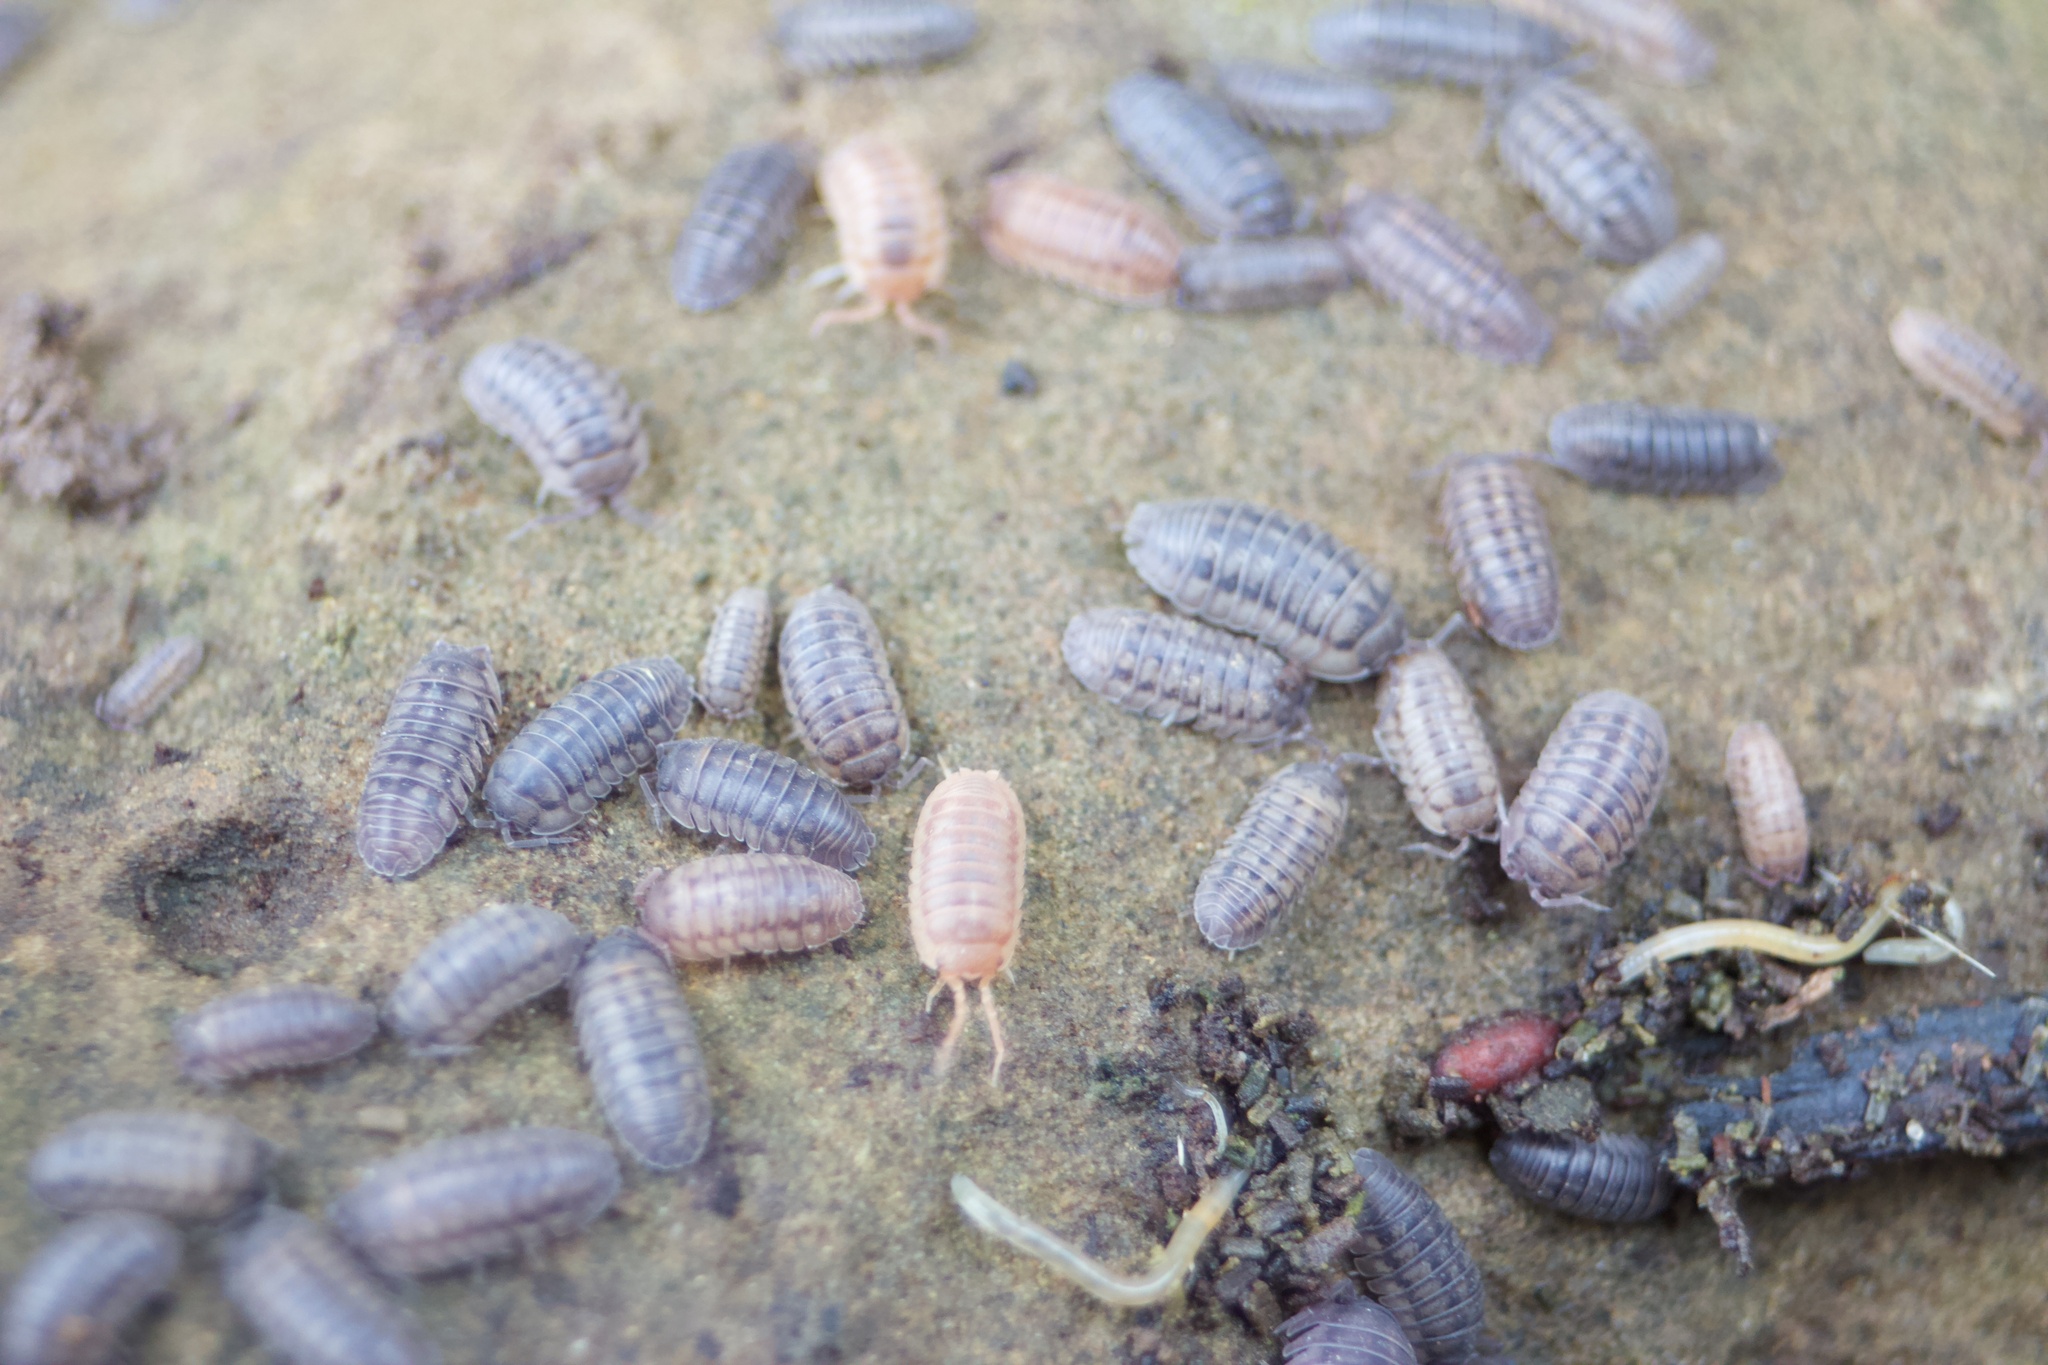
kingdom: Animalia
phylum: Arthropoda
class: Malacostraca
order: Isopoda
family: Armadillidiidae
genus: Armadillidium
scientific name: Armadillidium nasatum
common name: Isopod
